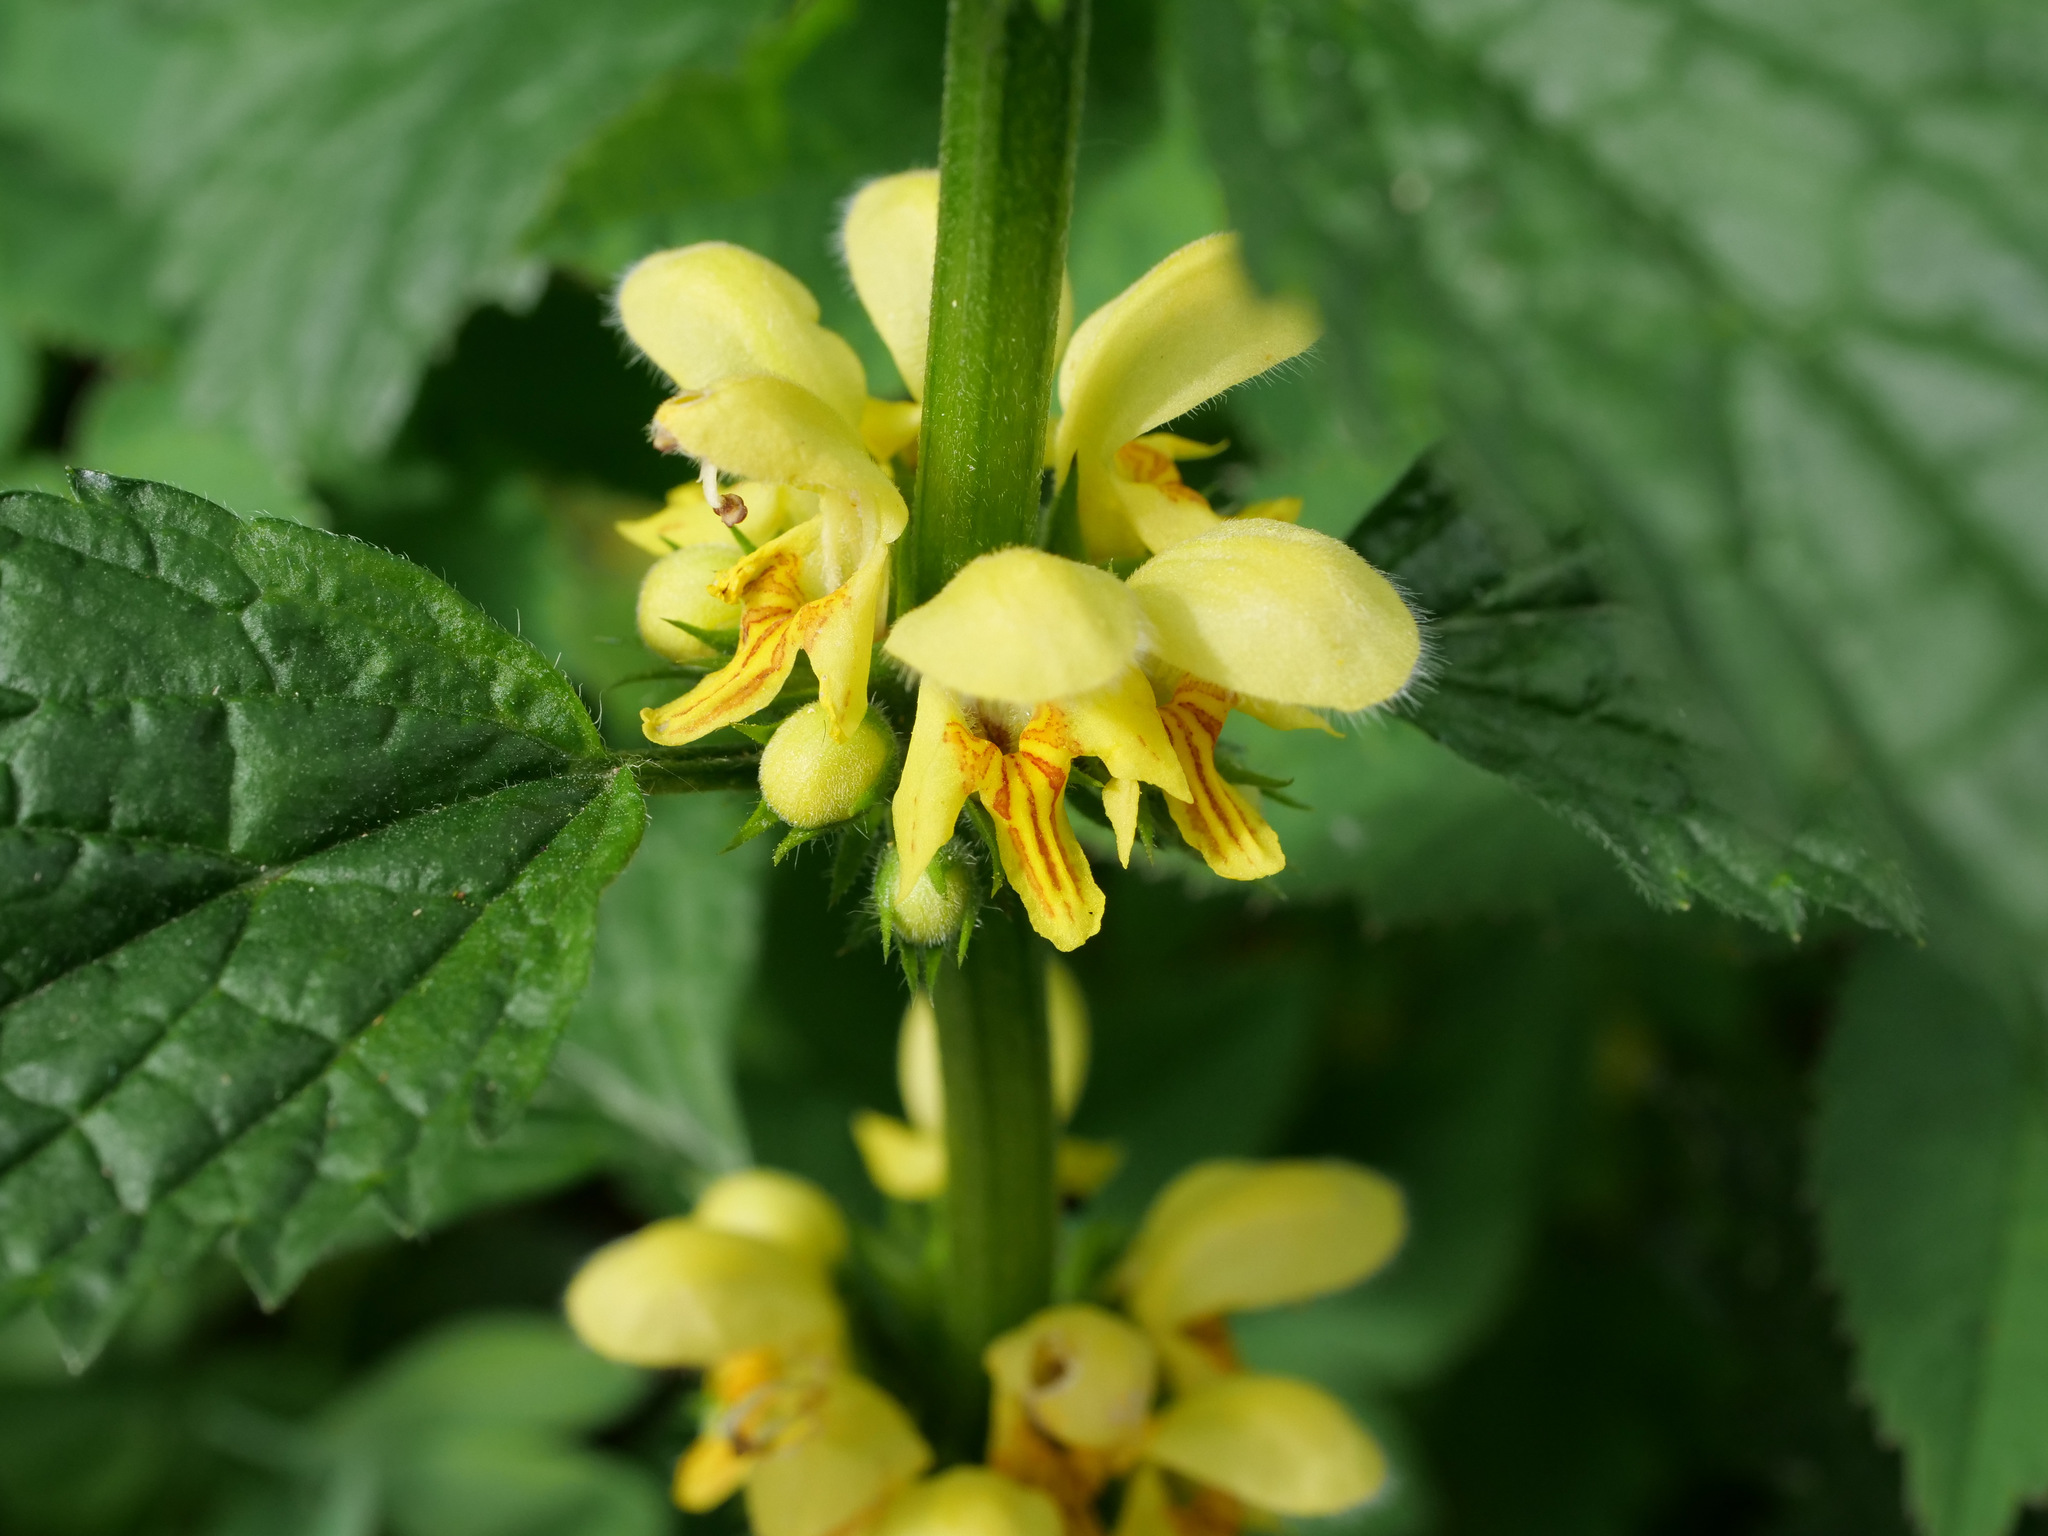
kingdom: Plantae
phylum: Tracheophyta
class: Magnoliopsida
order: Lamiales
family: Lamiaceae
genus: Lamium
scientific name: Lamium galeobdolon
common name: Yellow archangel
